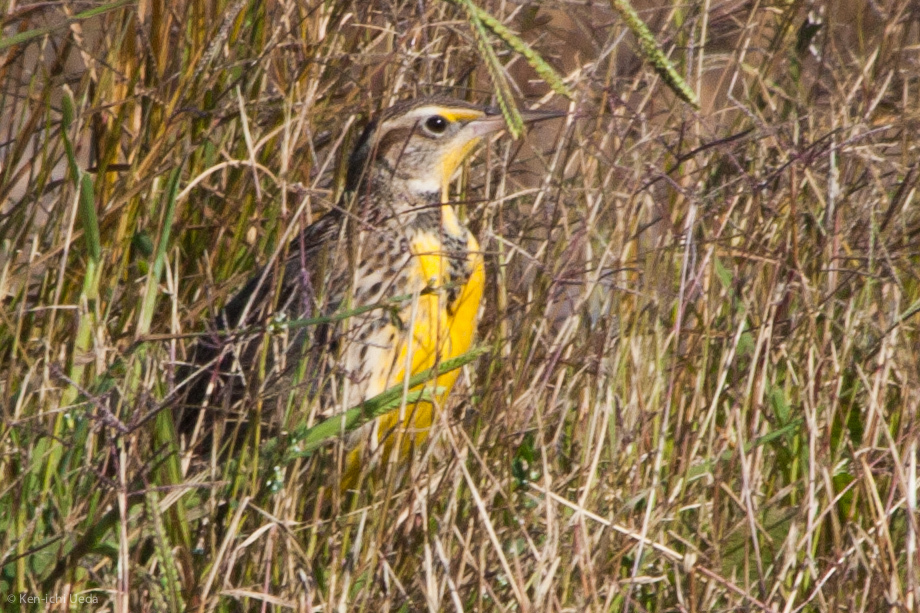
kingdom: Animalia
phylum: Chordata
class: Aves
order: Passeriformes
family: Icteridae
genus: Sturnella
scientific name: Sturnella neglecta
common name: Western meadowlark
